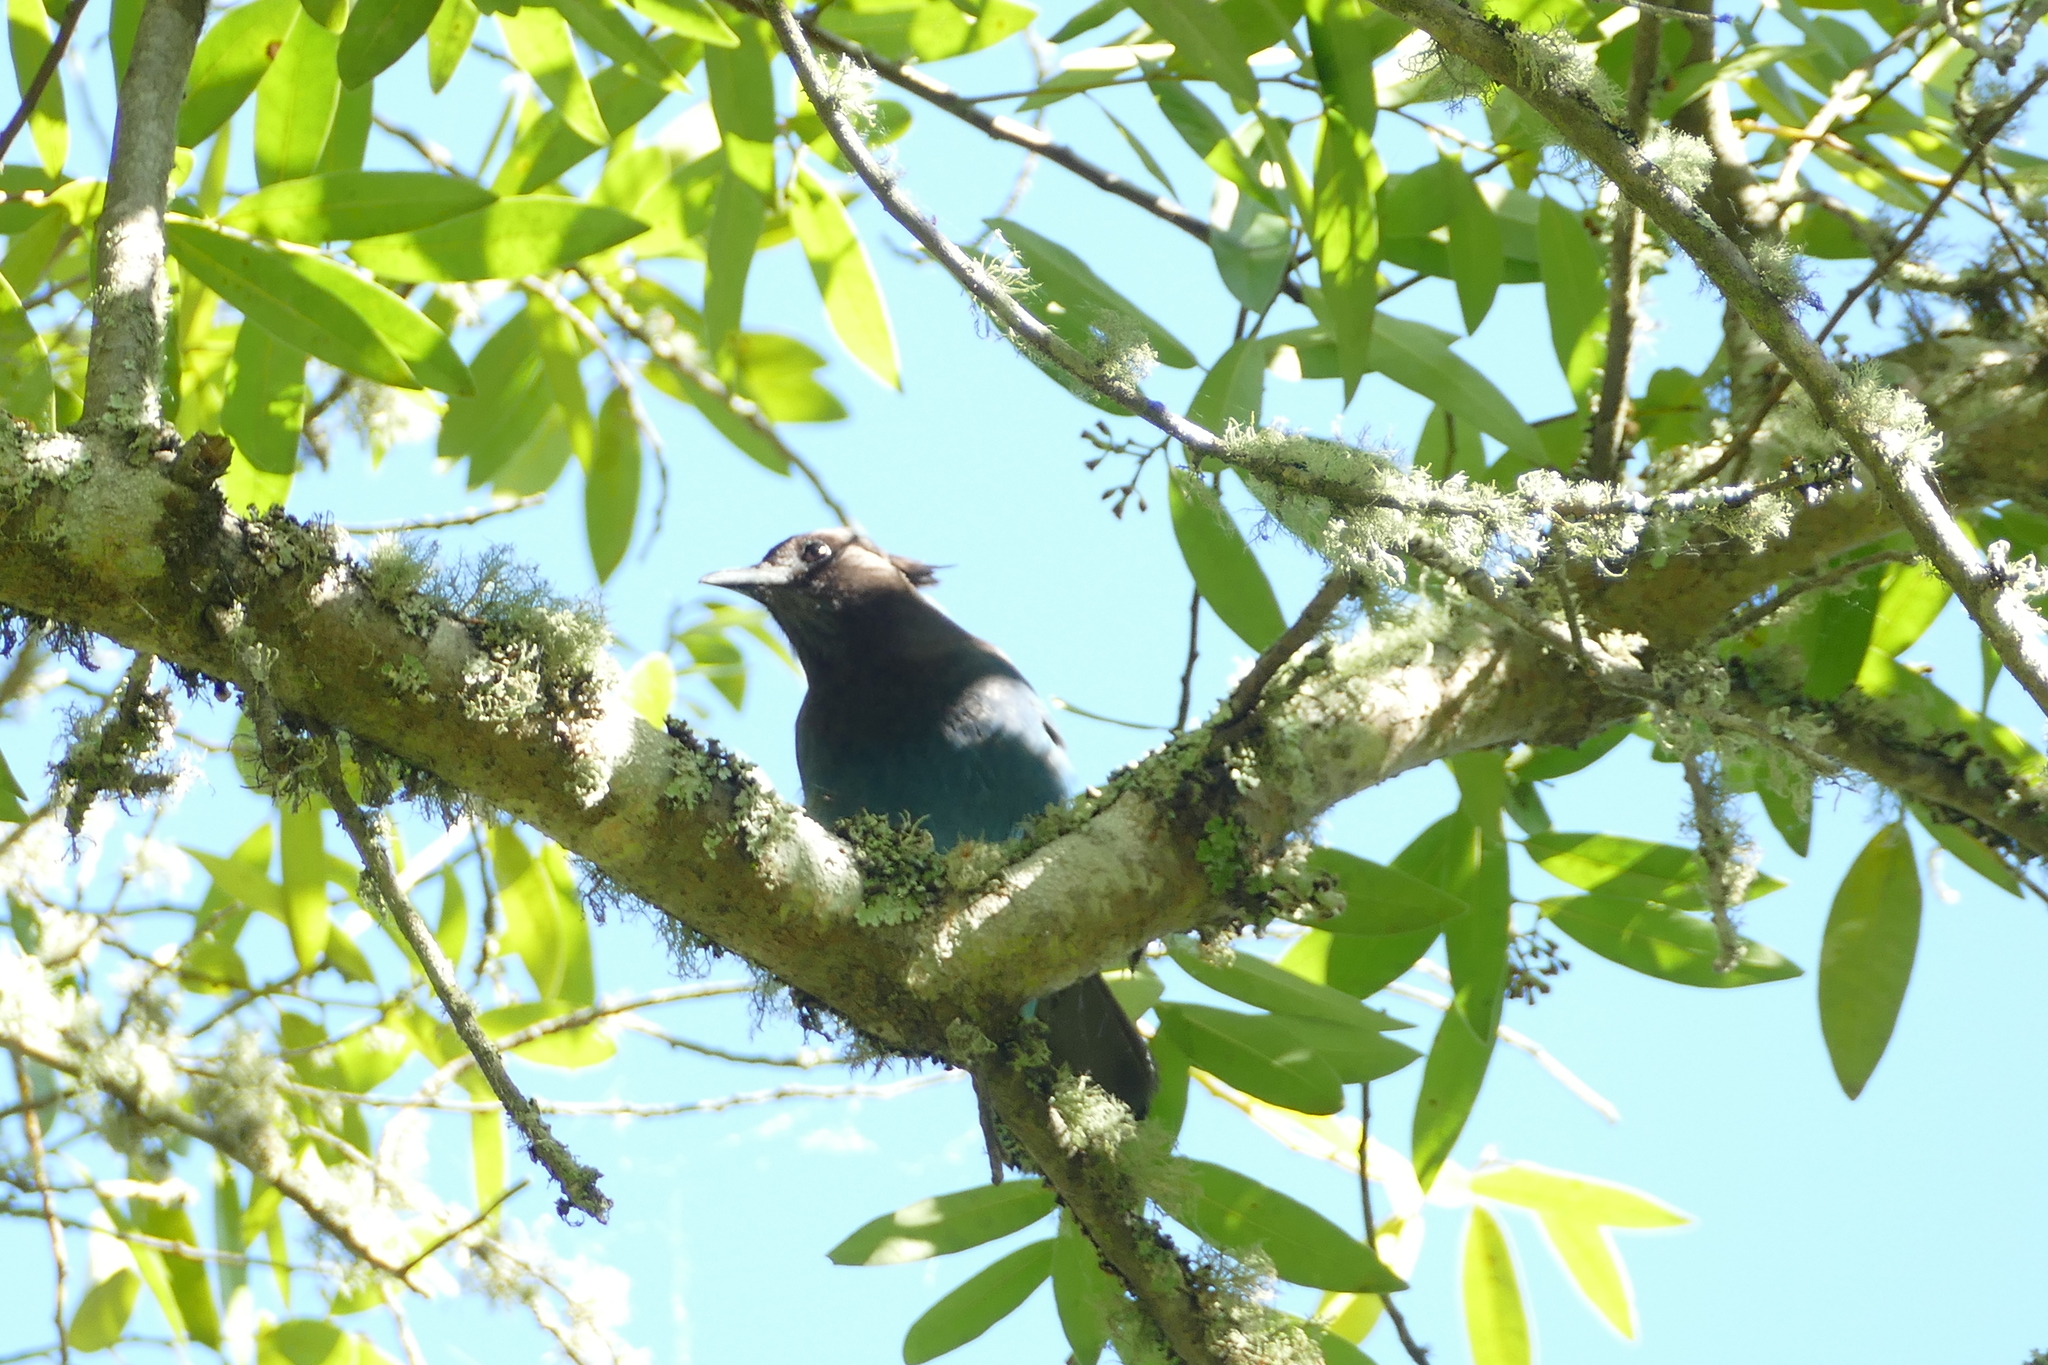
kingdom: Animalia
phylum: Chordata
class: Aves
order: Passeriformes
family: Corvidae
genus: Cyanocitta
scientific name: Cyanocitta stelleri
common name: Steller's jay
